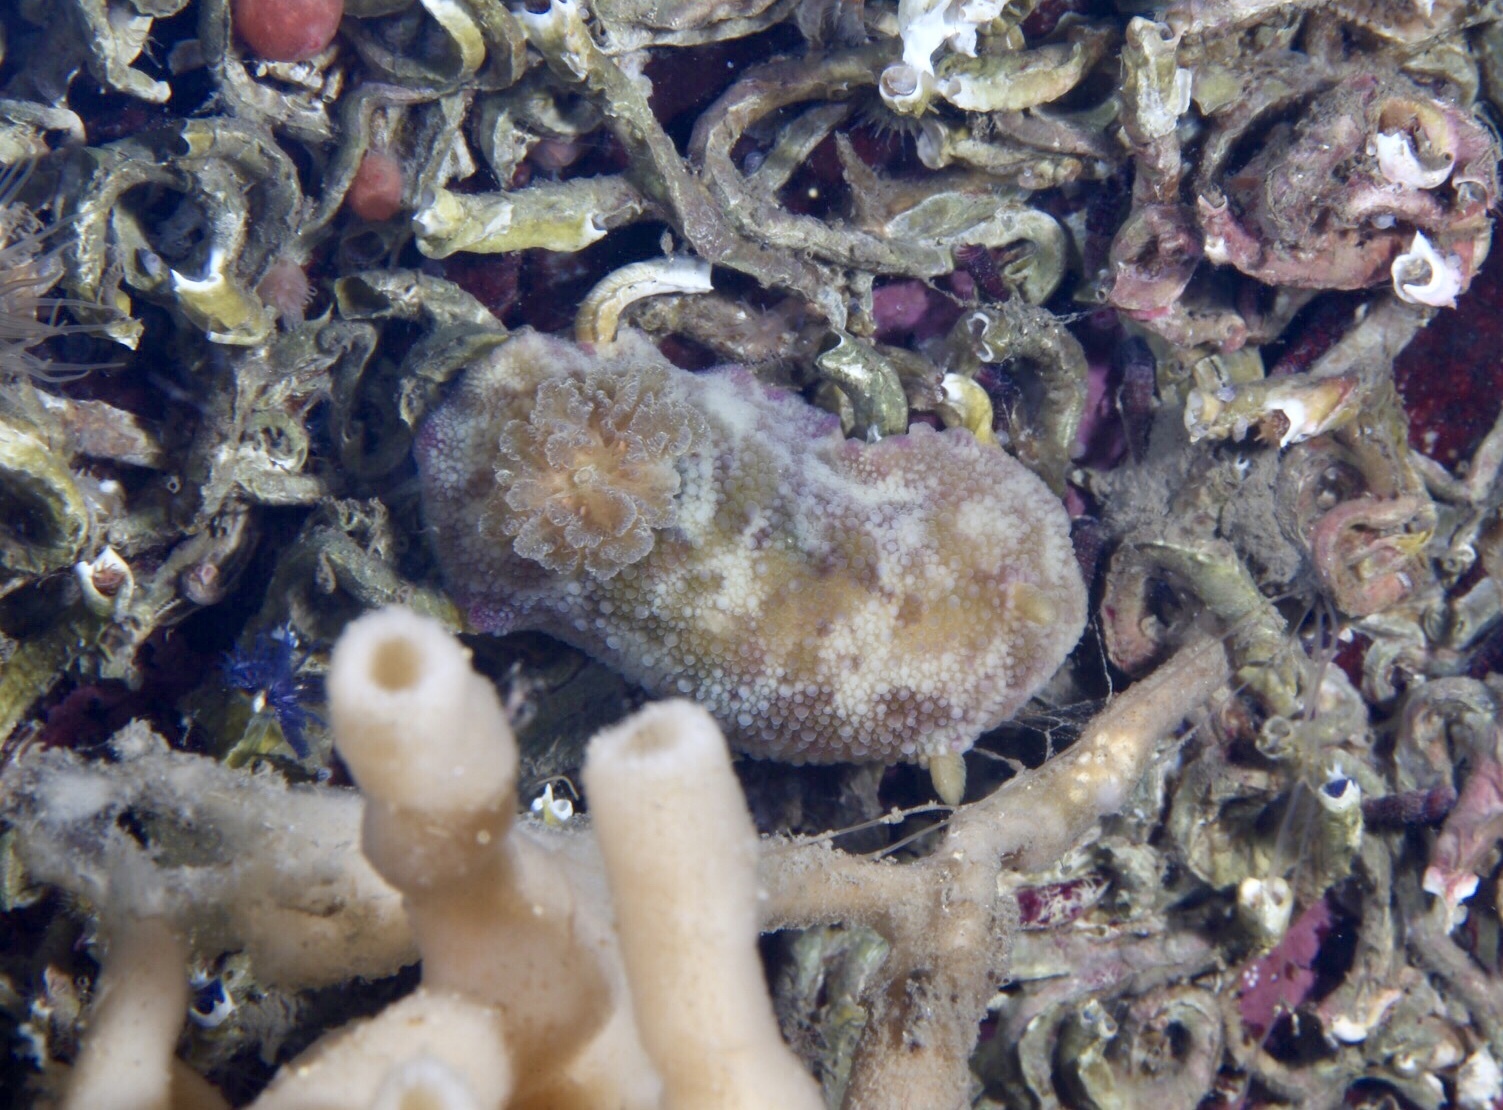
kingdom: Animalia
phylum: Mollusca
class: Gastropoda
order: Nudibranchia
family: Dorididae
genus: Doris
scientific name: Doris pseudoargus
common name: Sea lemon
